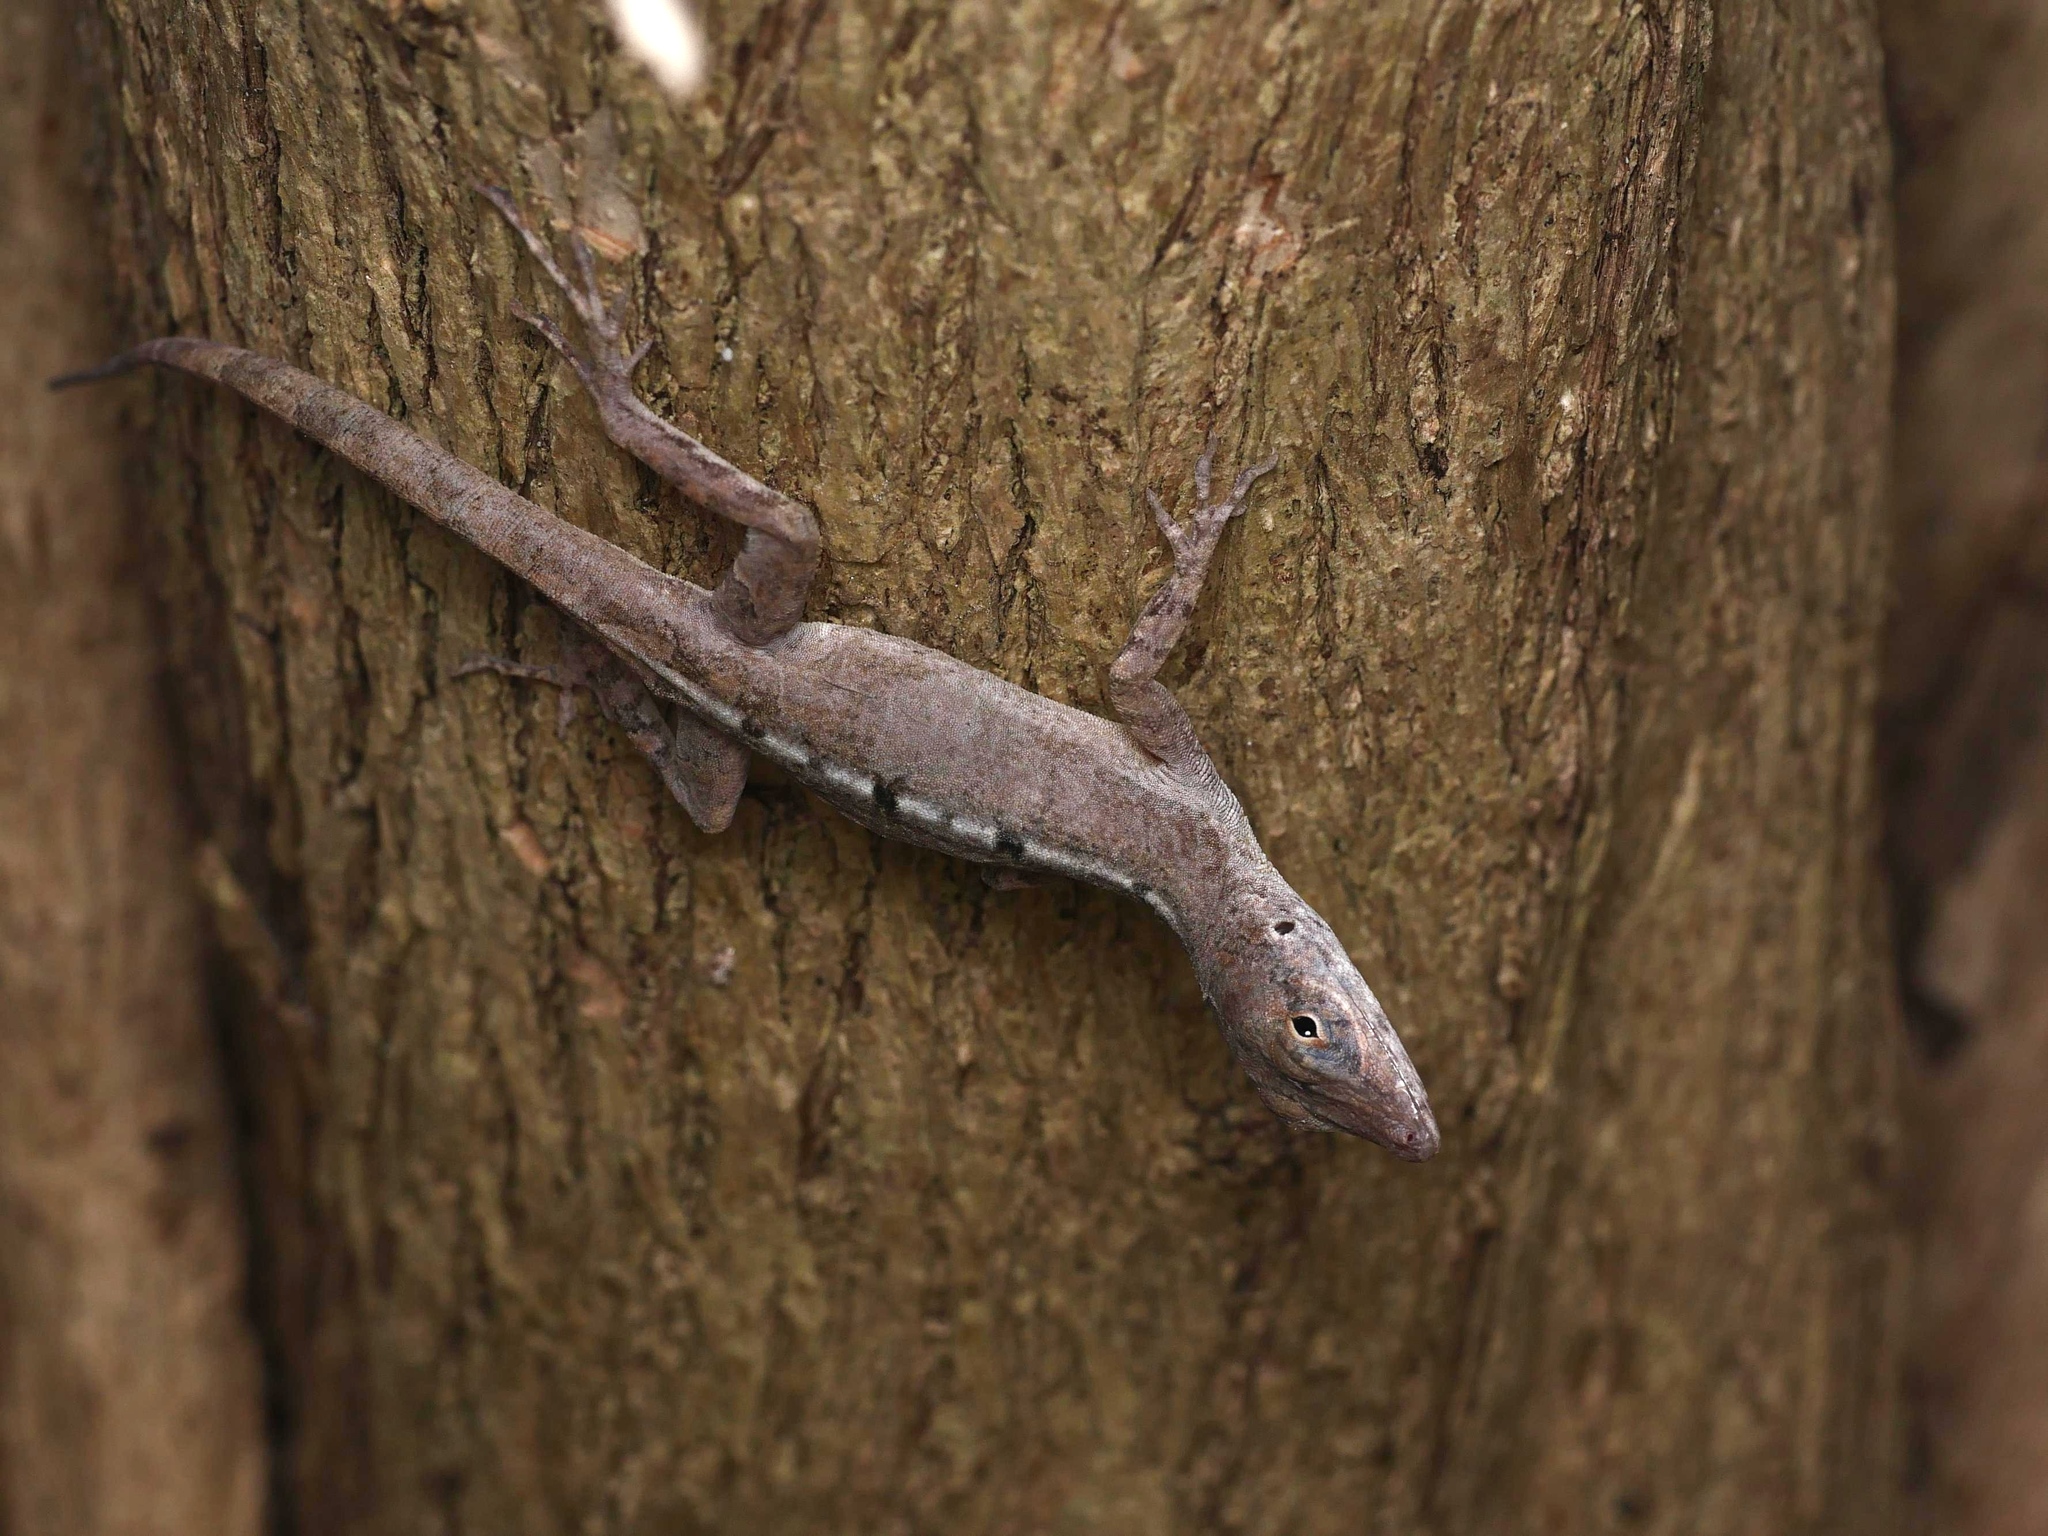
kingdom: Animalia
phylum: Chordata
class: Squamata
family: Dactyloidae
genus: Anolis
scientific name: Anolis scriptus
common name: Silver key anole
